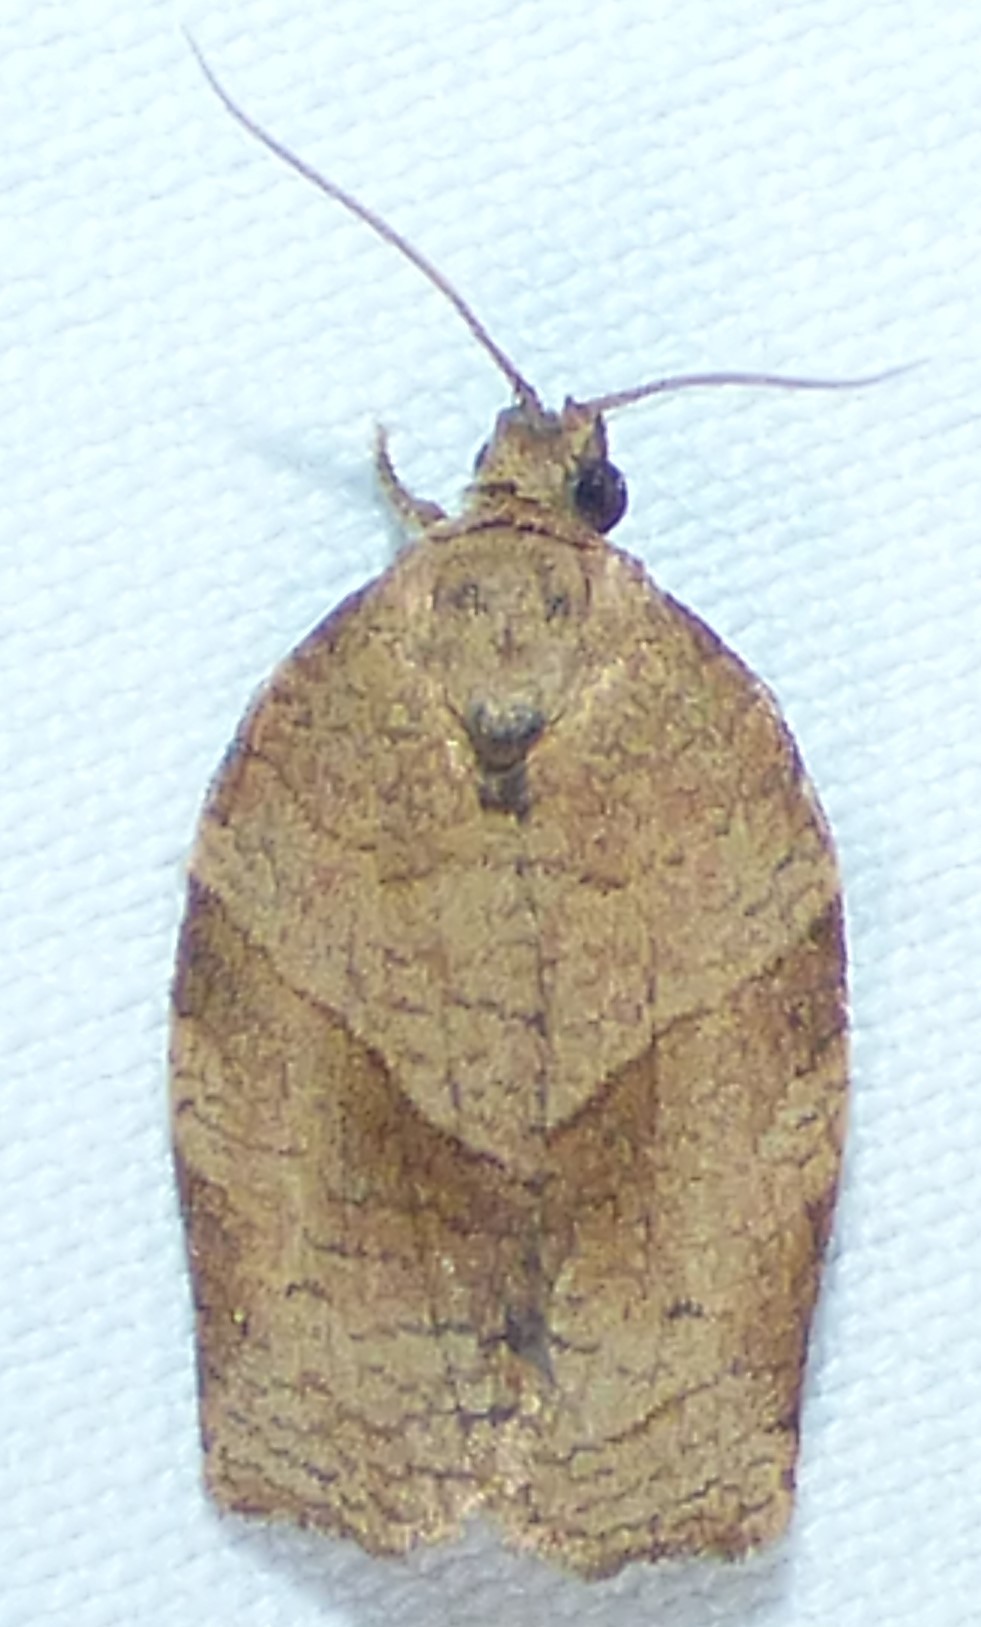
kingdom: Animalia
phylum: Arthropoda
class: Insecta
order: Lepidoptera
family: Tortricidae
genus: Choristoneura
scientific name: Choristoneura rosaceana
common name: Oblique-banded leafroller moth
